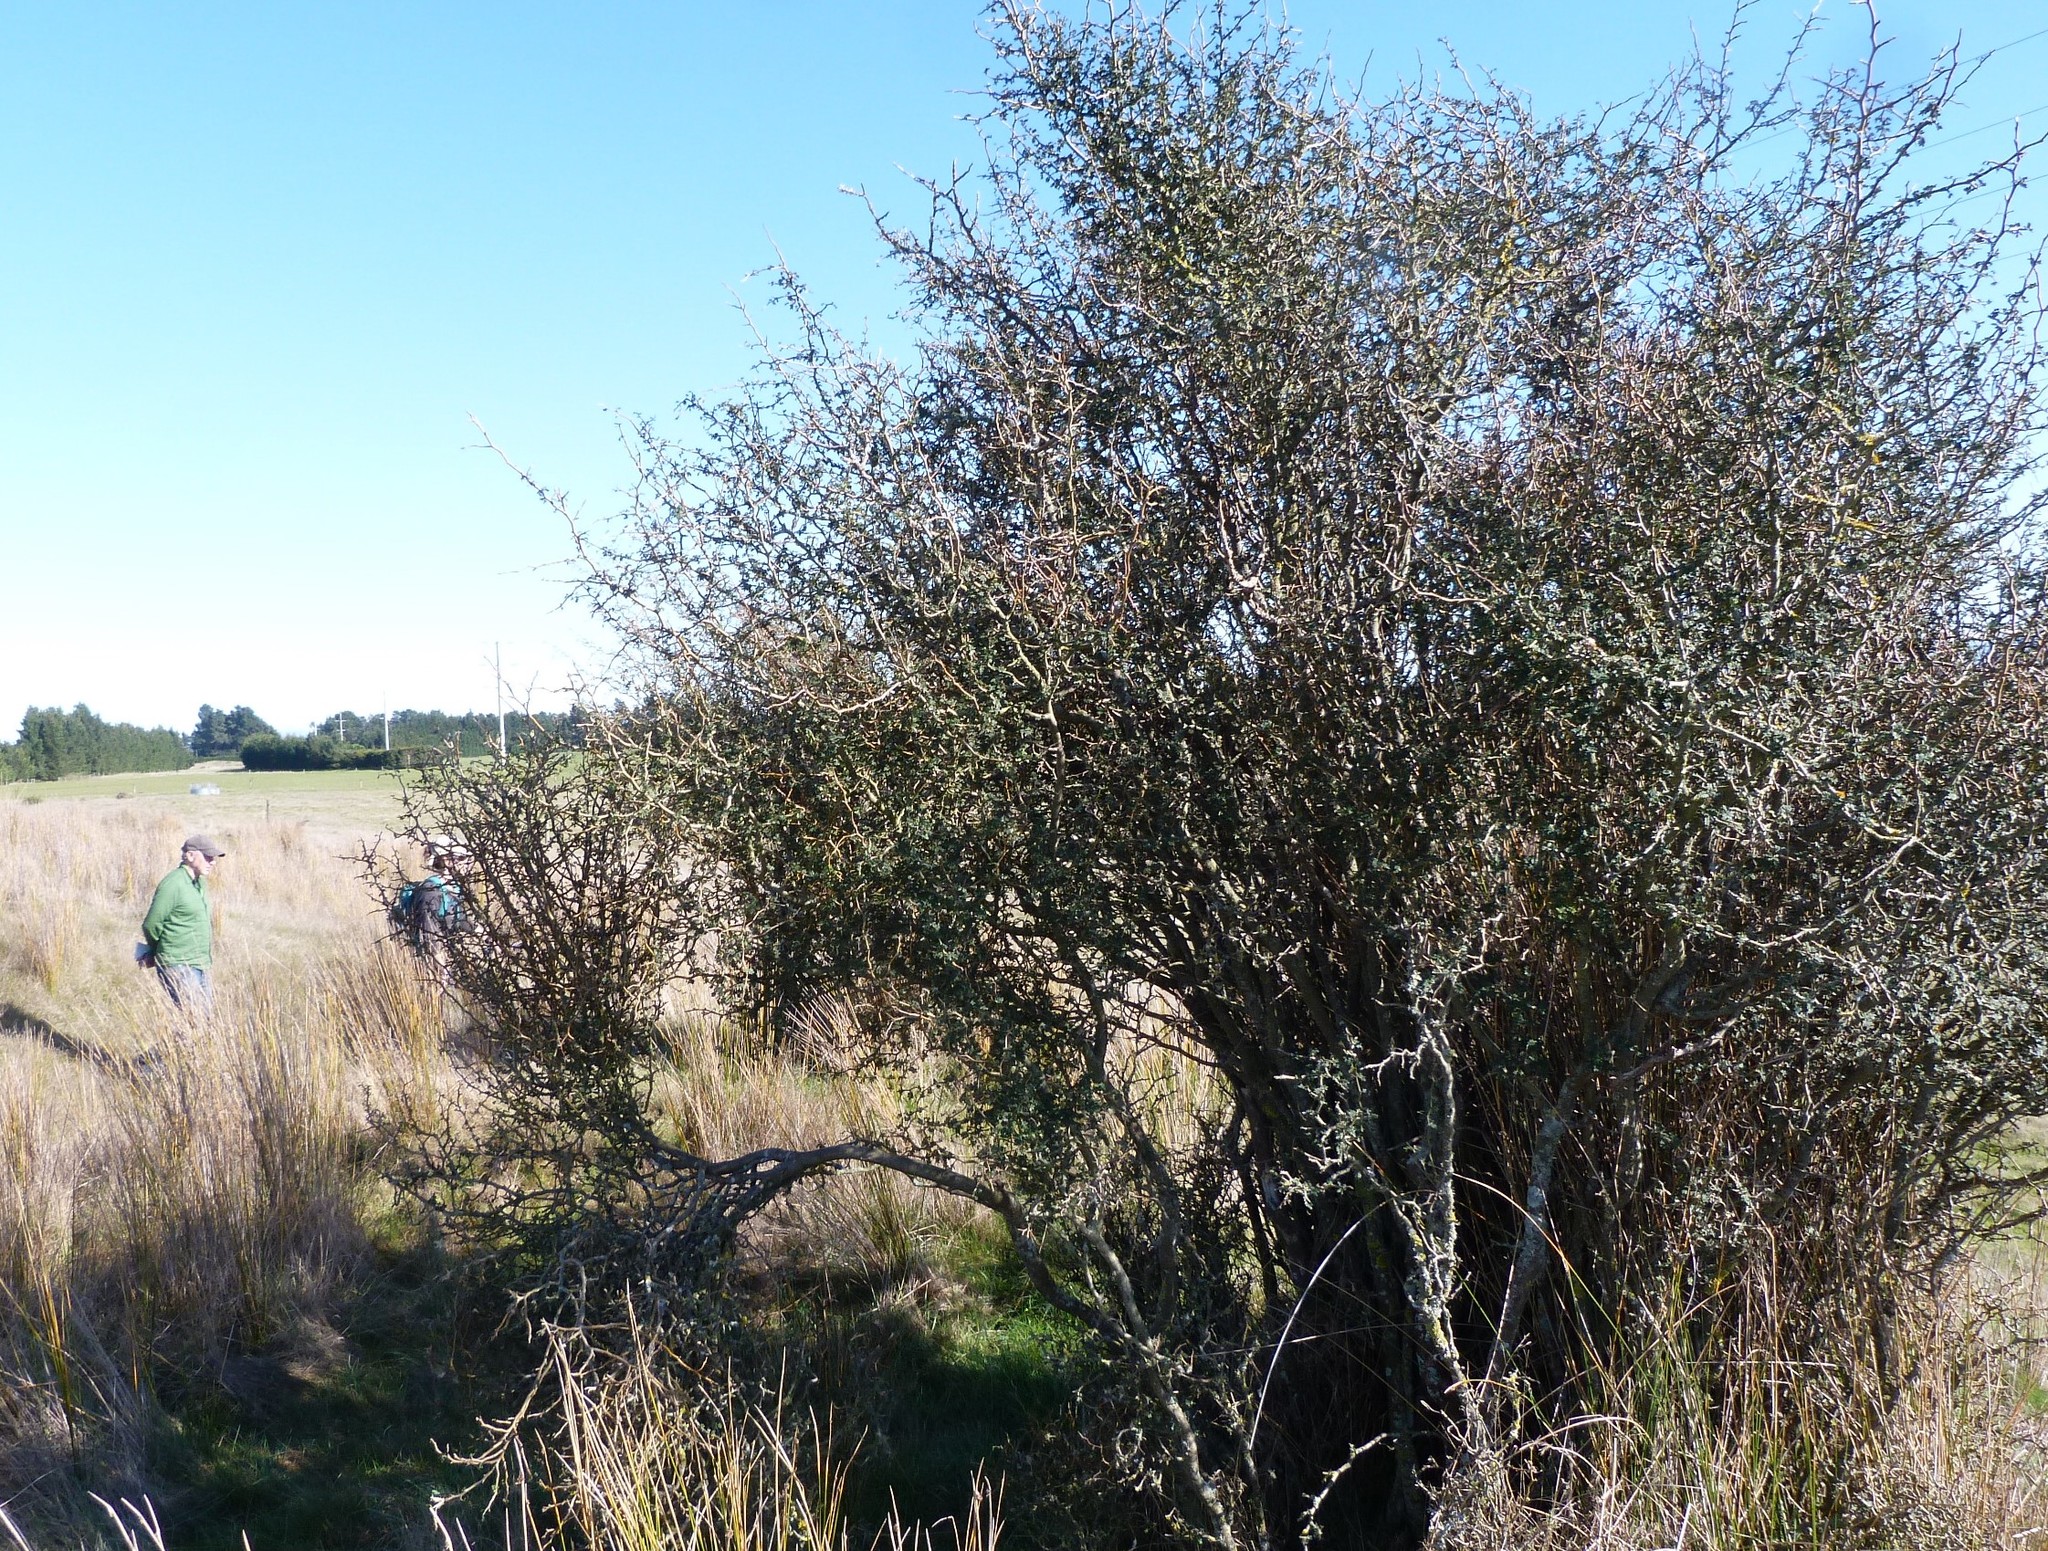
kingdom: Plantae
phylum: Tracheophyta
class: Magnoliopsida
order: Fabales
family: Fabaceae
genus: Sophora
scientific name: Sophora prostrata
